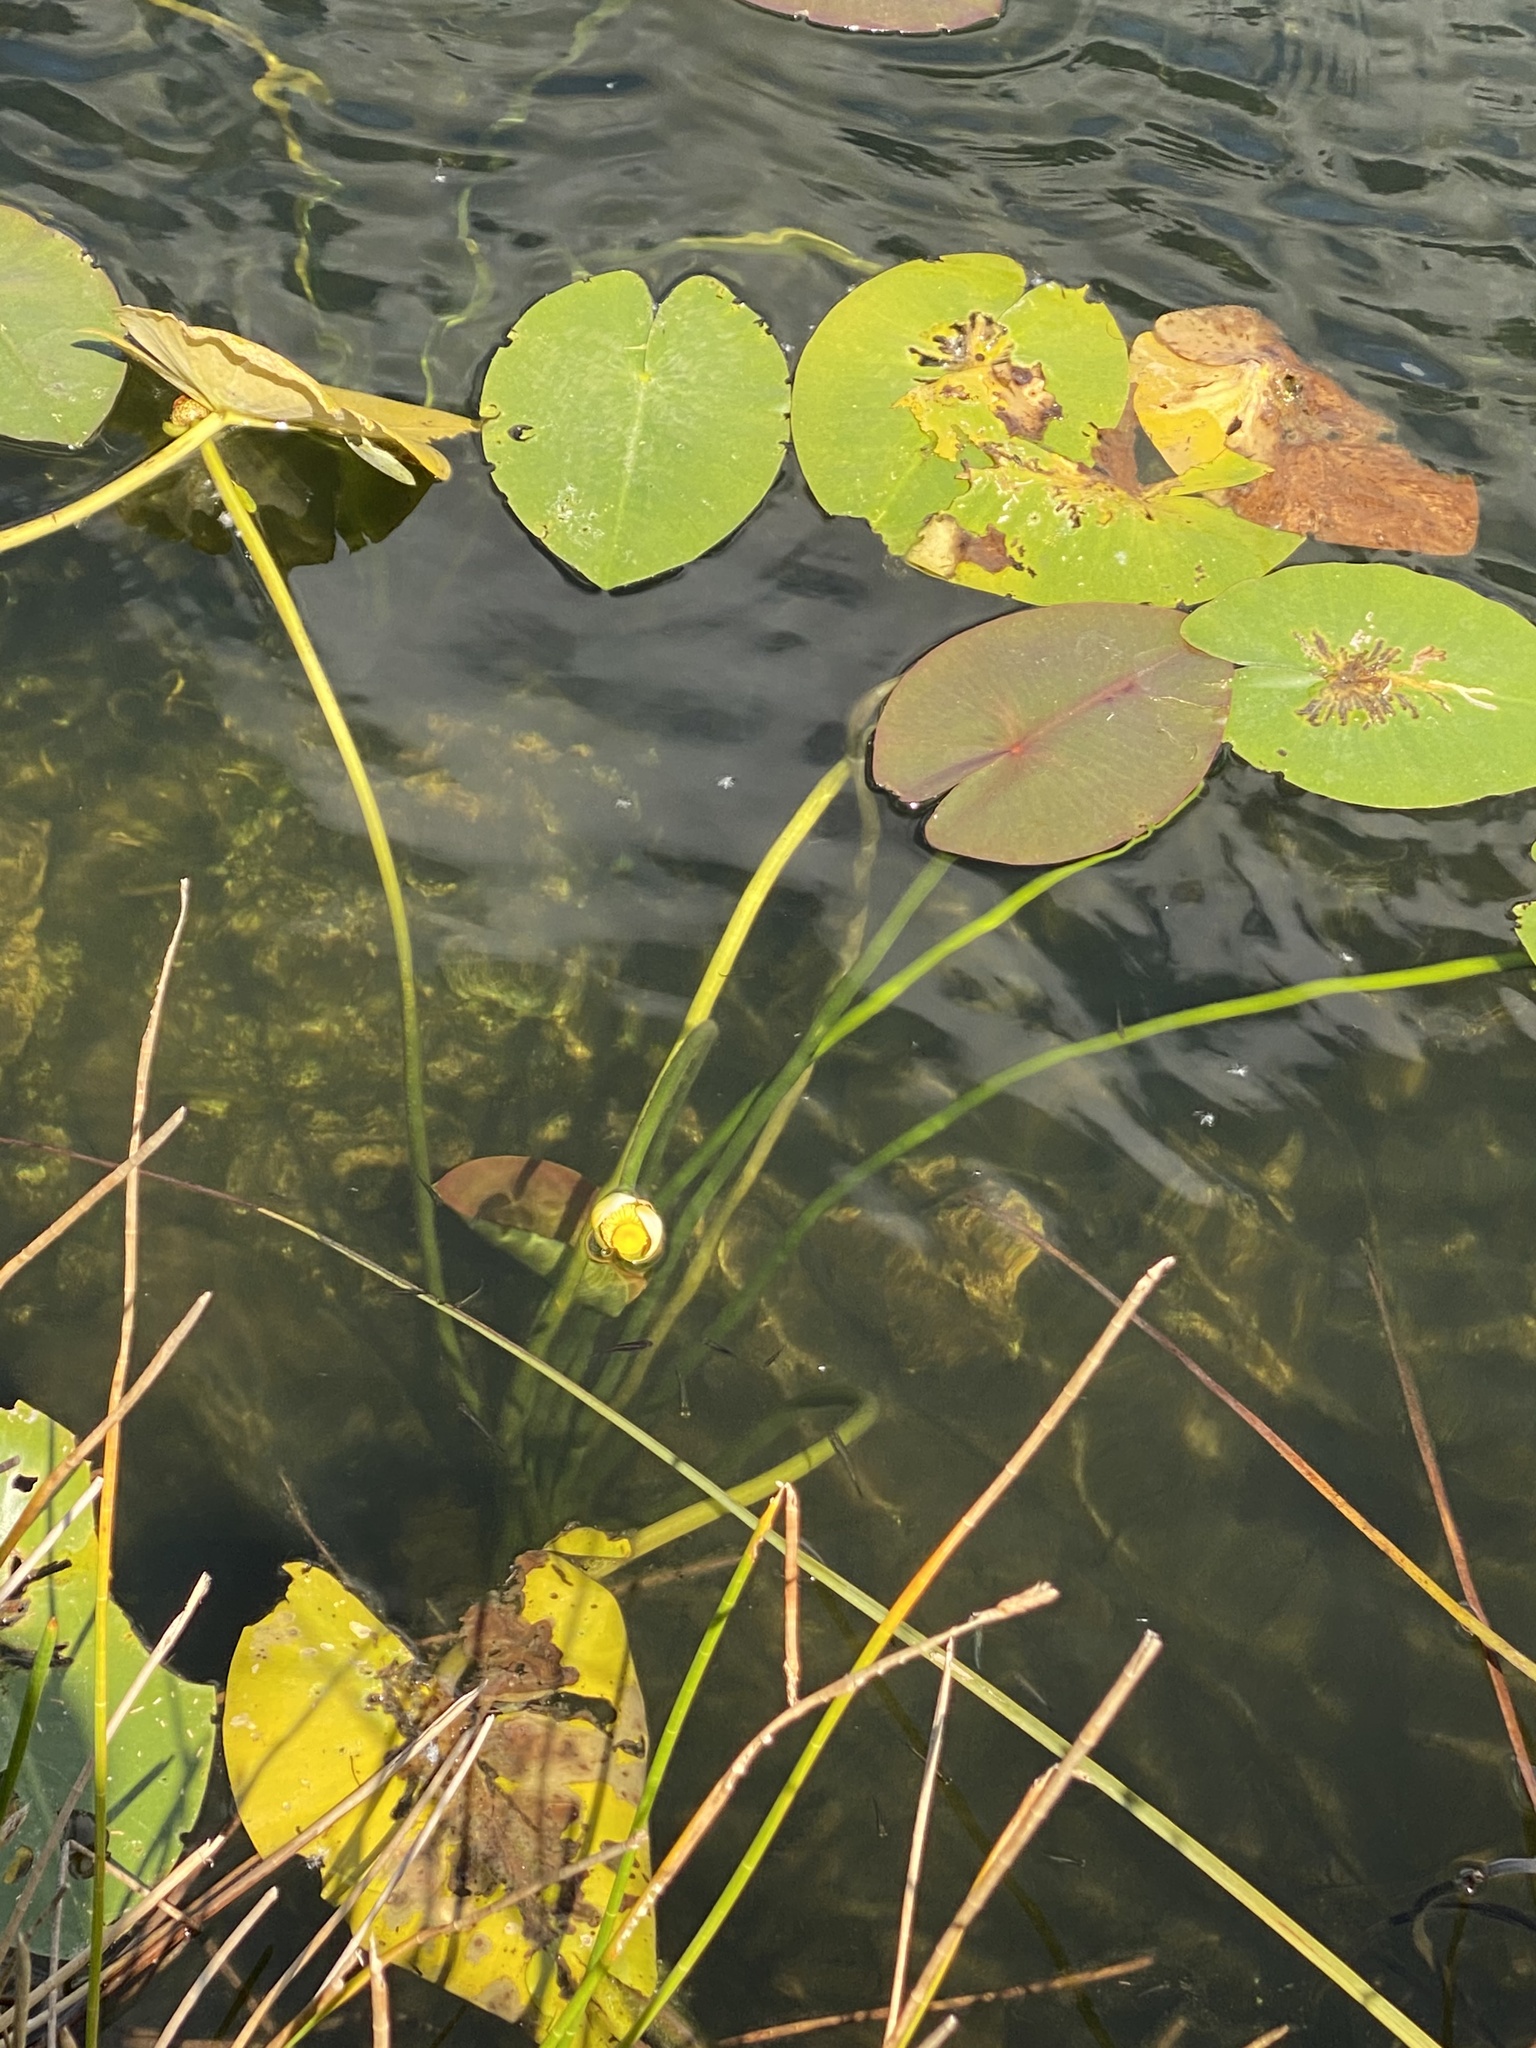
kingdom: Plantae
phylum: Tracheophyta
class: Magnoliopsida
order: Nymphaeales
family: Nymphaeaceae
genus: Nuphar
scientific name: Nuphar advena
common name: Spatter-dock
